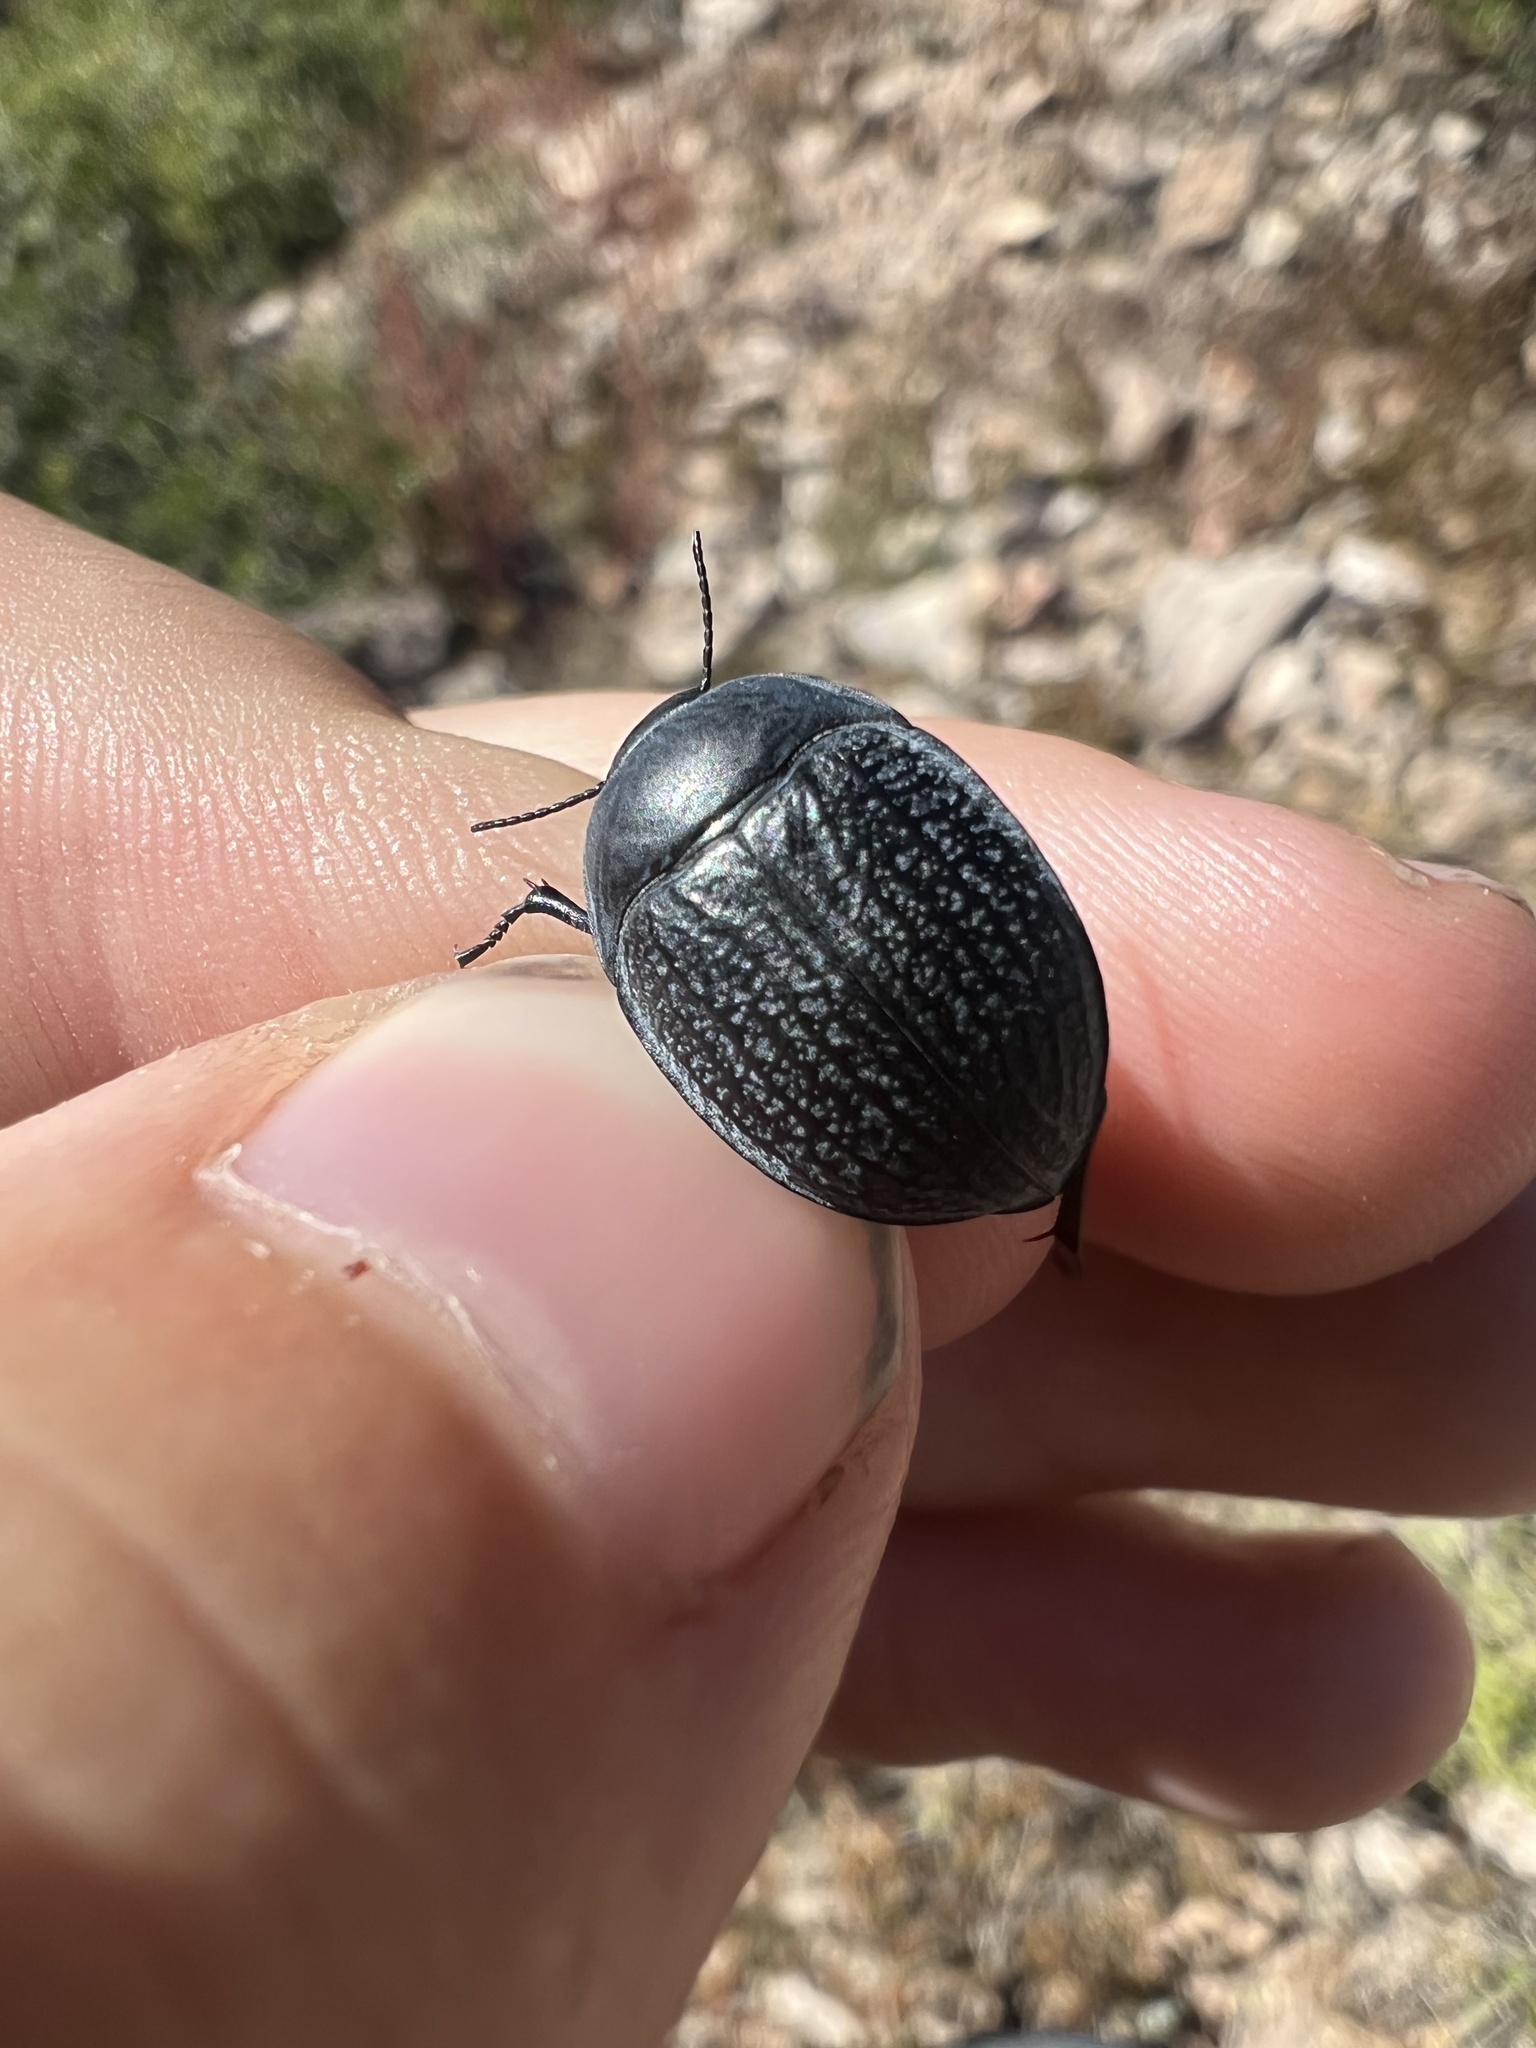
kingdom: Animalia
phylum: Arthropoda
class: Insecta
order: Coleoptera
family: Tenebrionidae
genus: Eusattus
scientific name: Eusattus reticulatus
